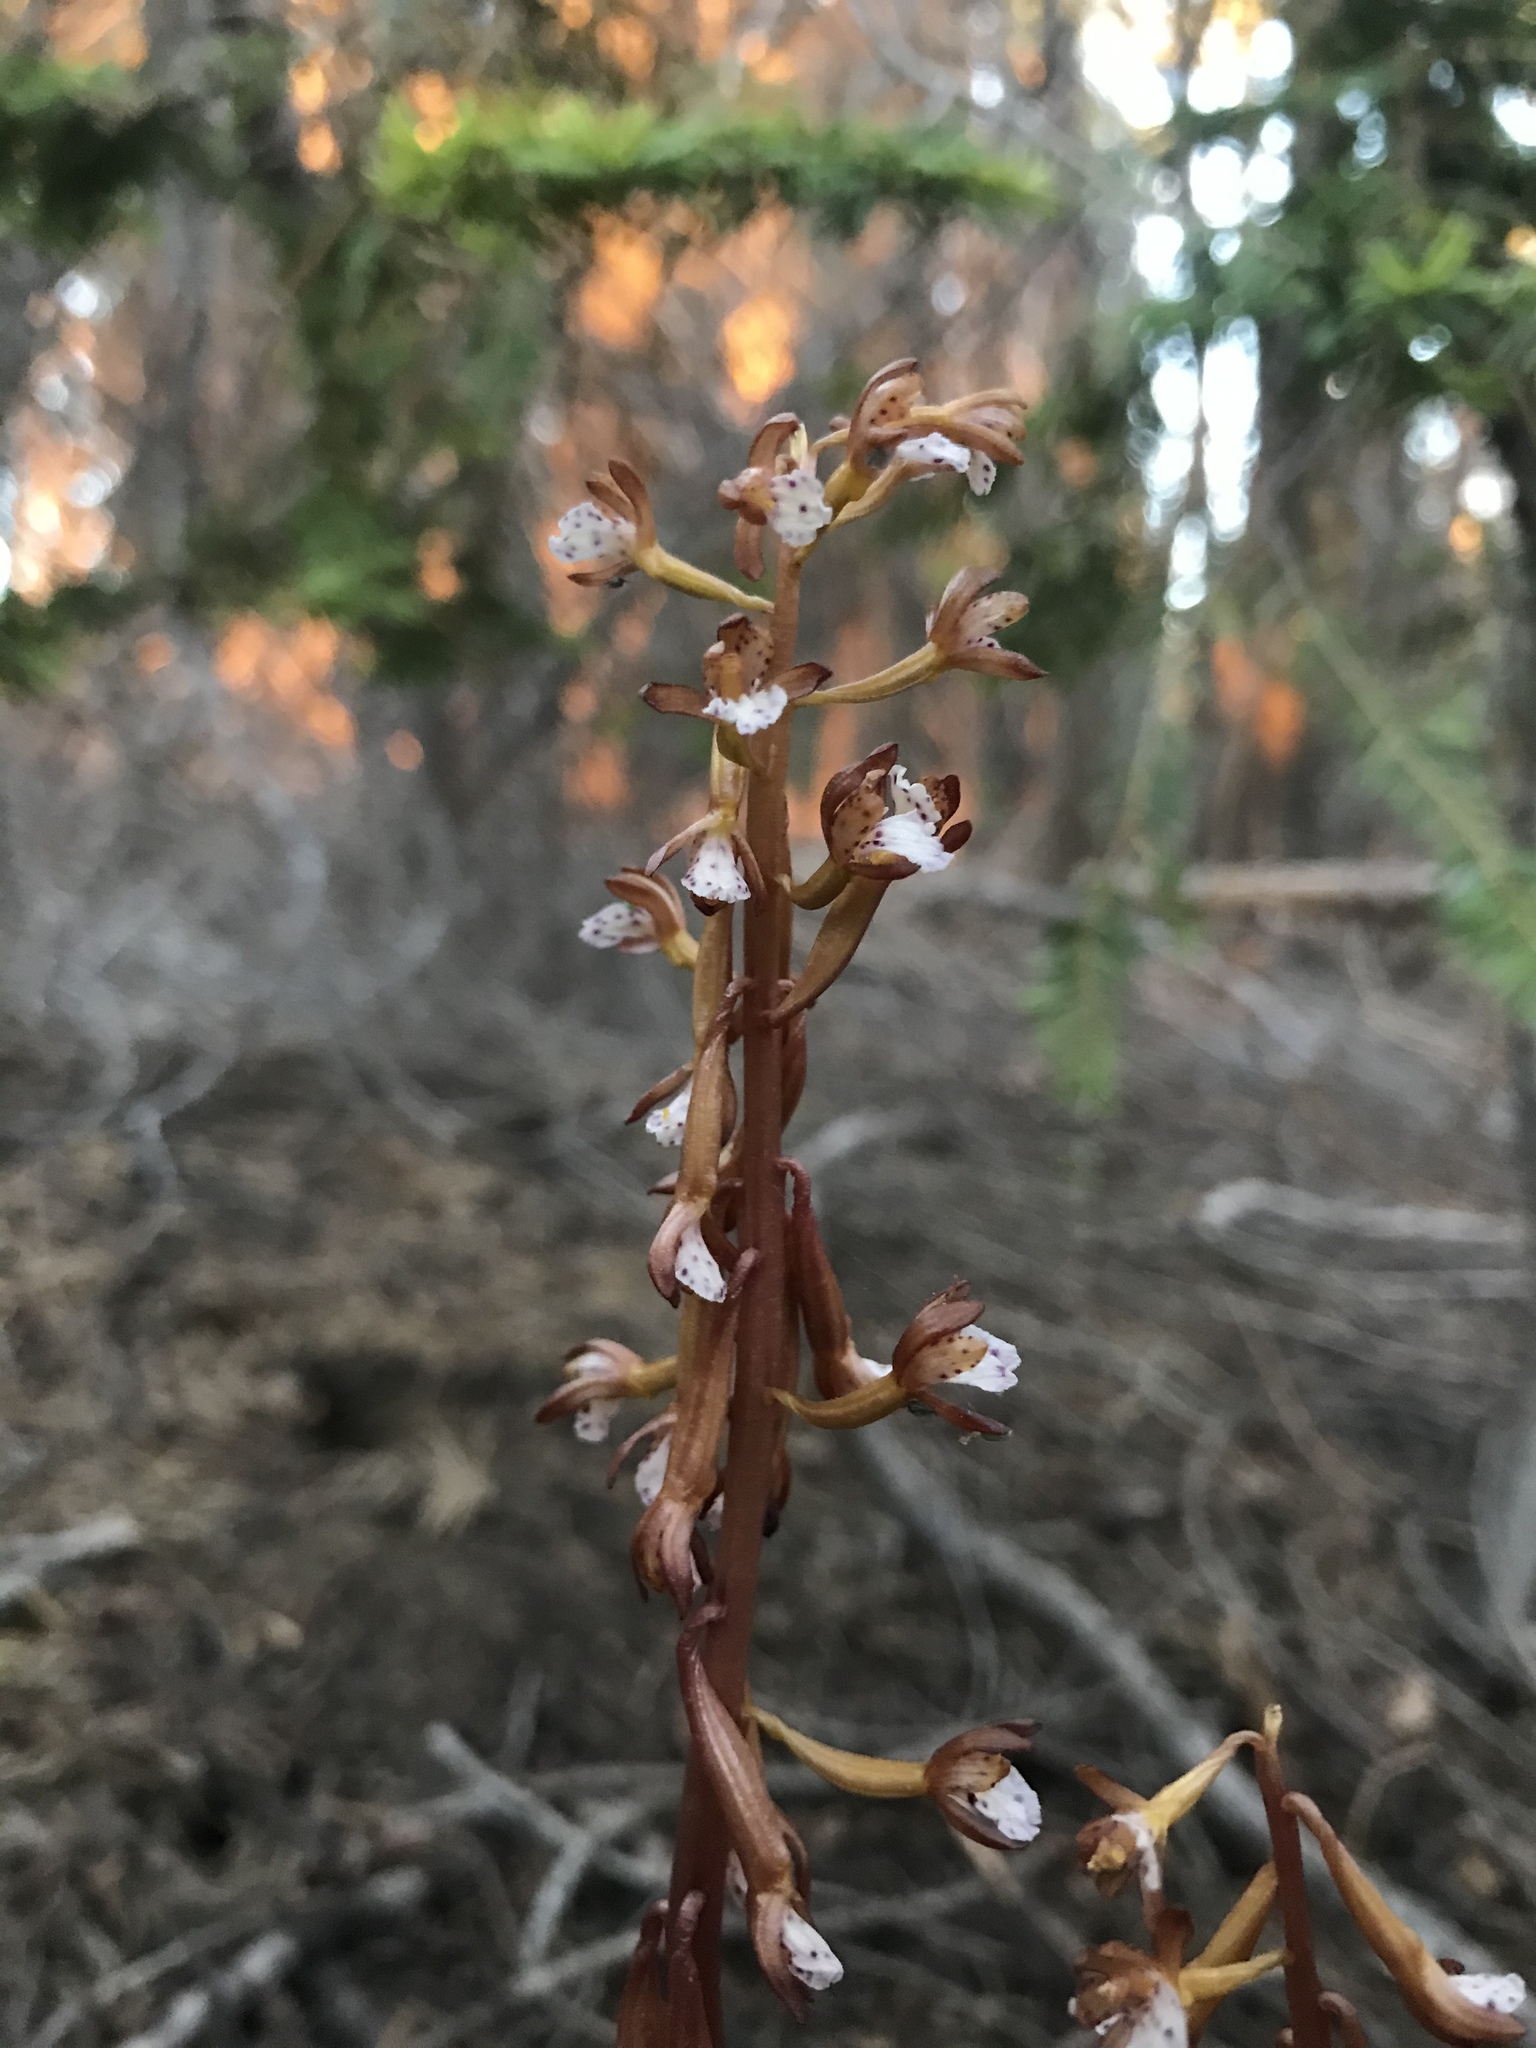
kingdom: Plantae
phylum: Tracheophyta
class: Liliopsida
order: Asparagales
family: Orchidaceae
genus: Corallorhiza
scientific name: Corallorhiza maculata
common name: Spotted coralroot
